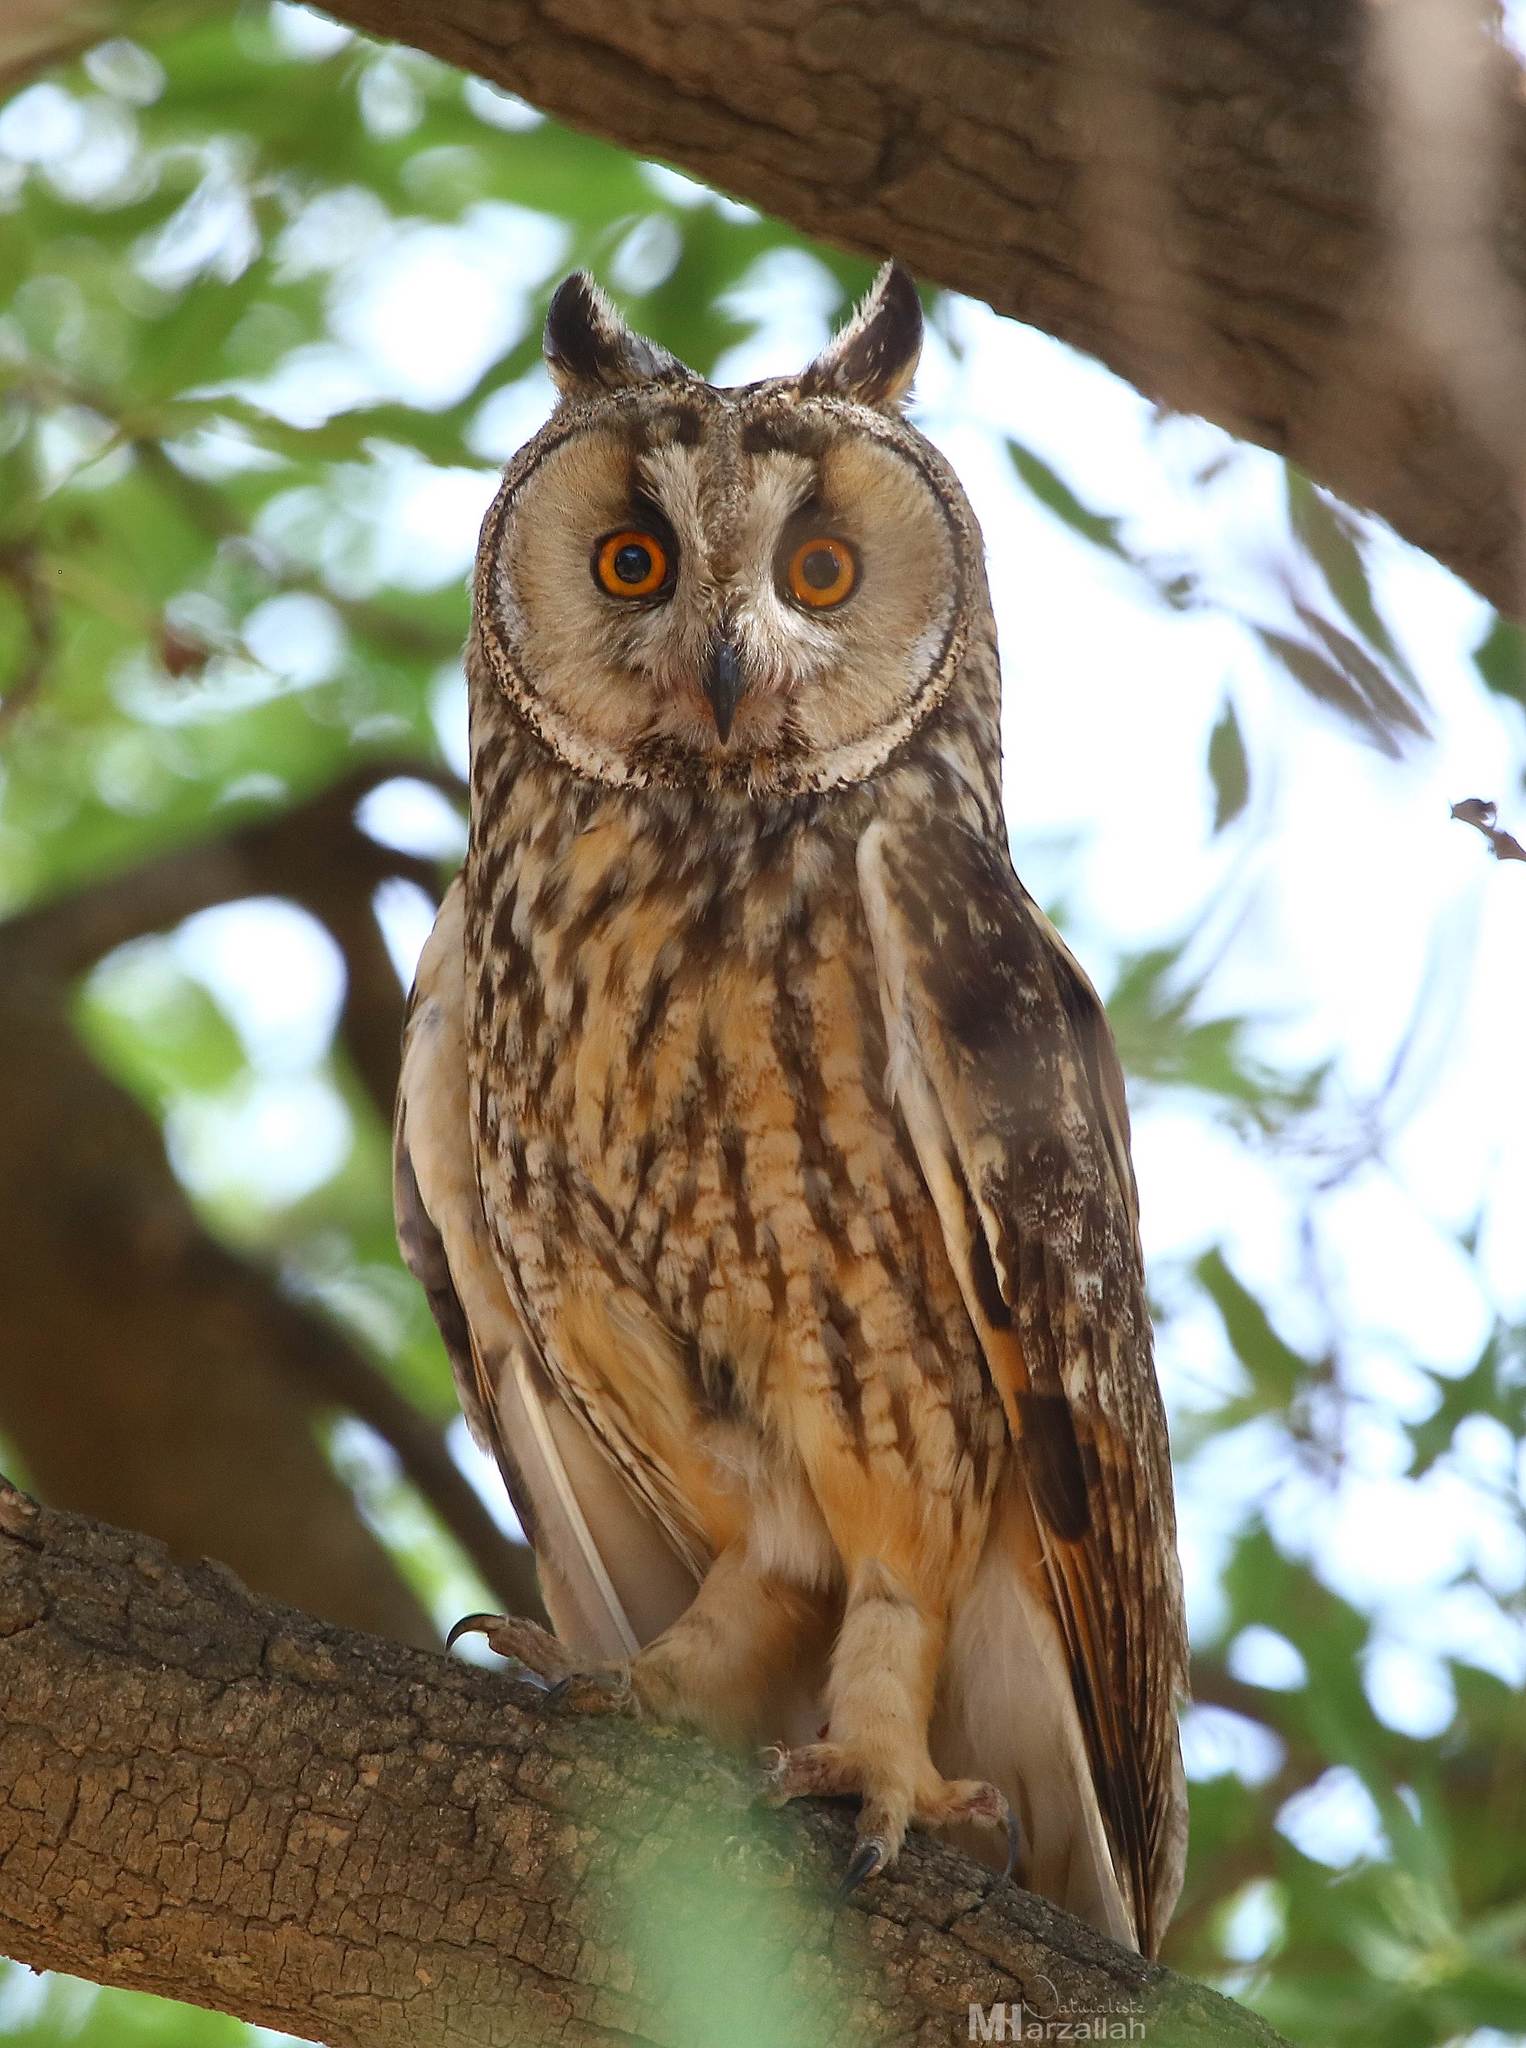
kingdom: Animalia
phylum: Chordata
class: Aves
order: Strigiformes
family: Strigidae
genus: Asio
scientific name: Asio otus
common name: Long-eared owl
